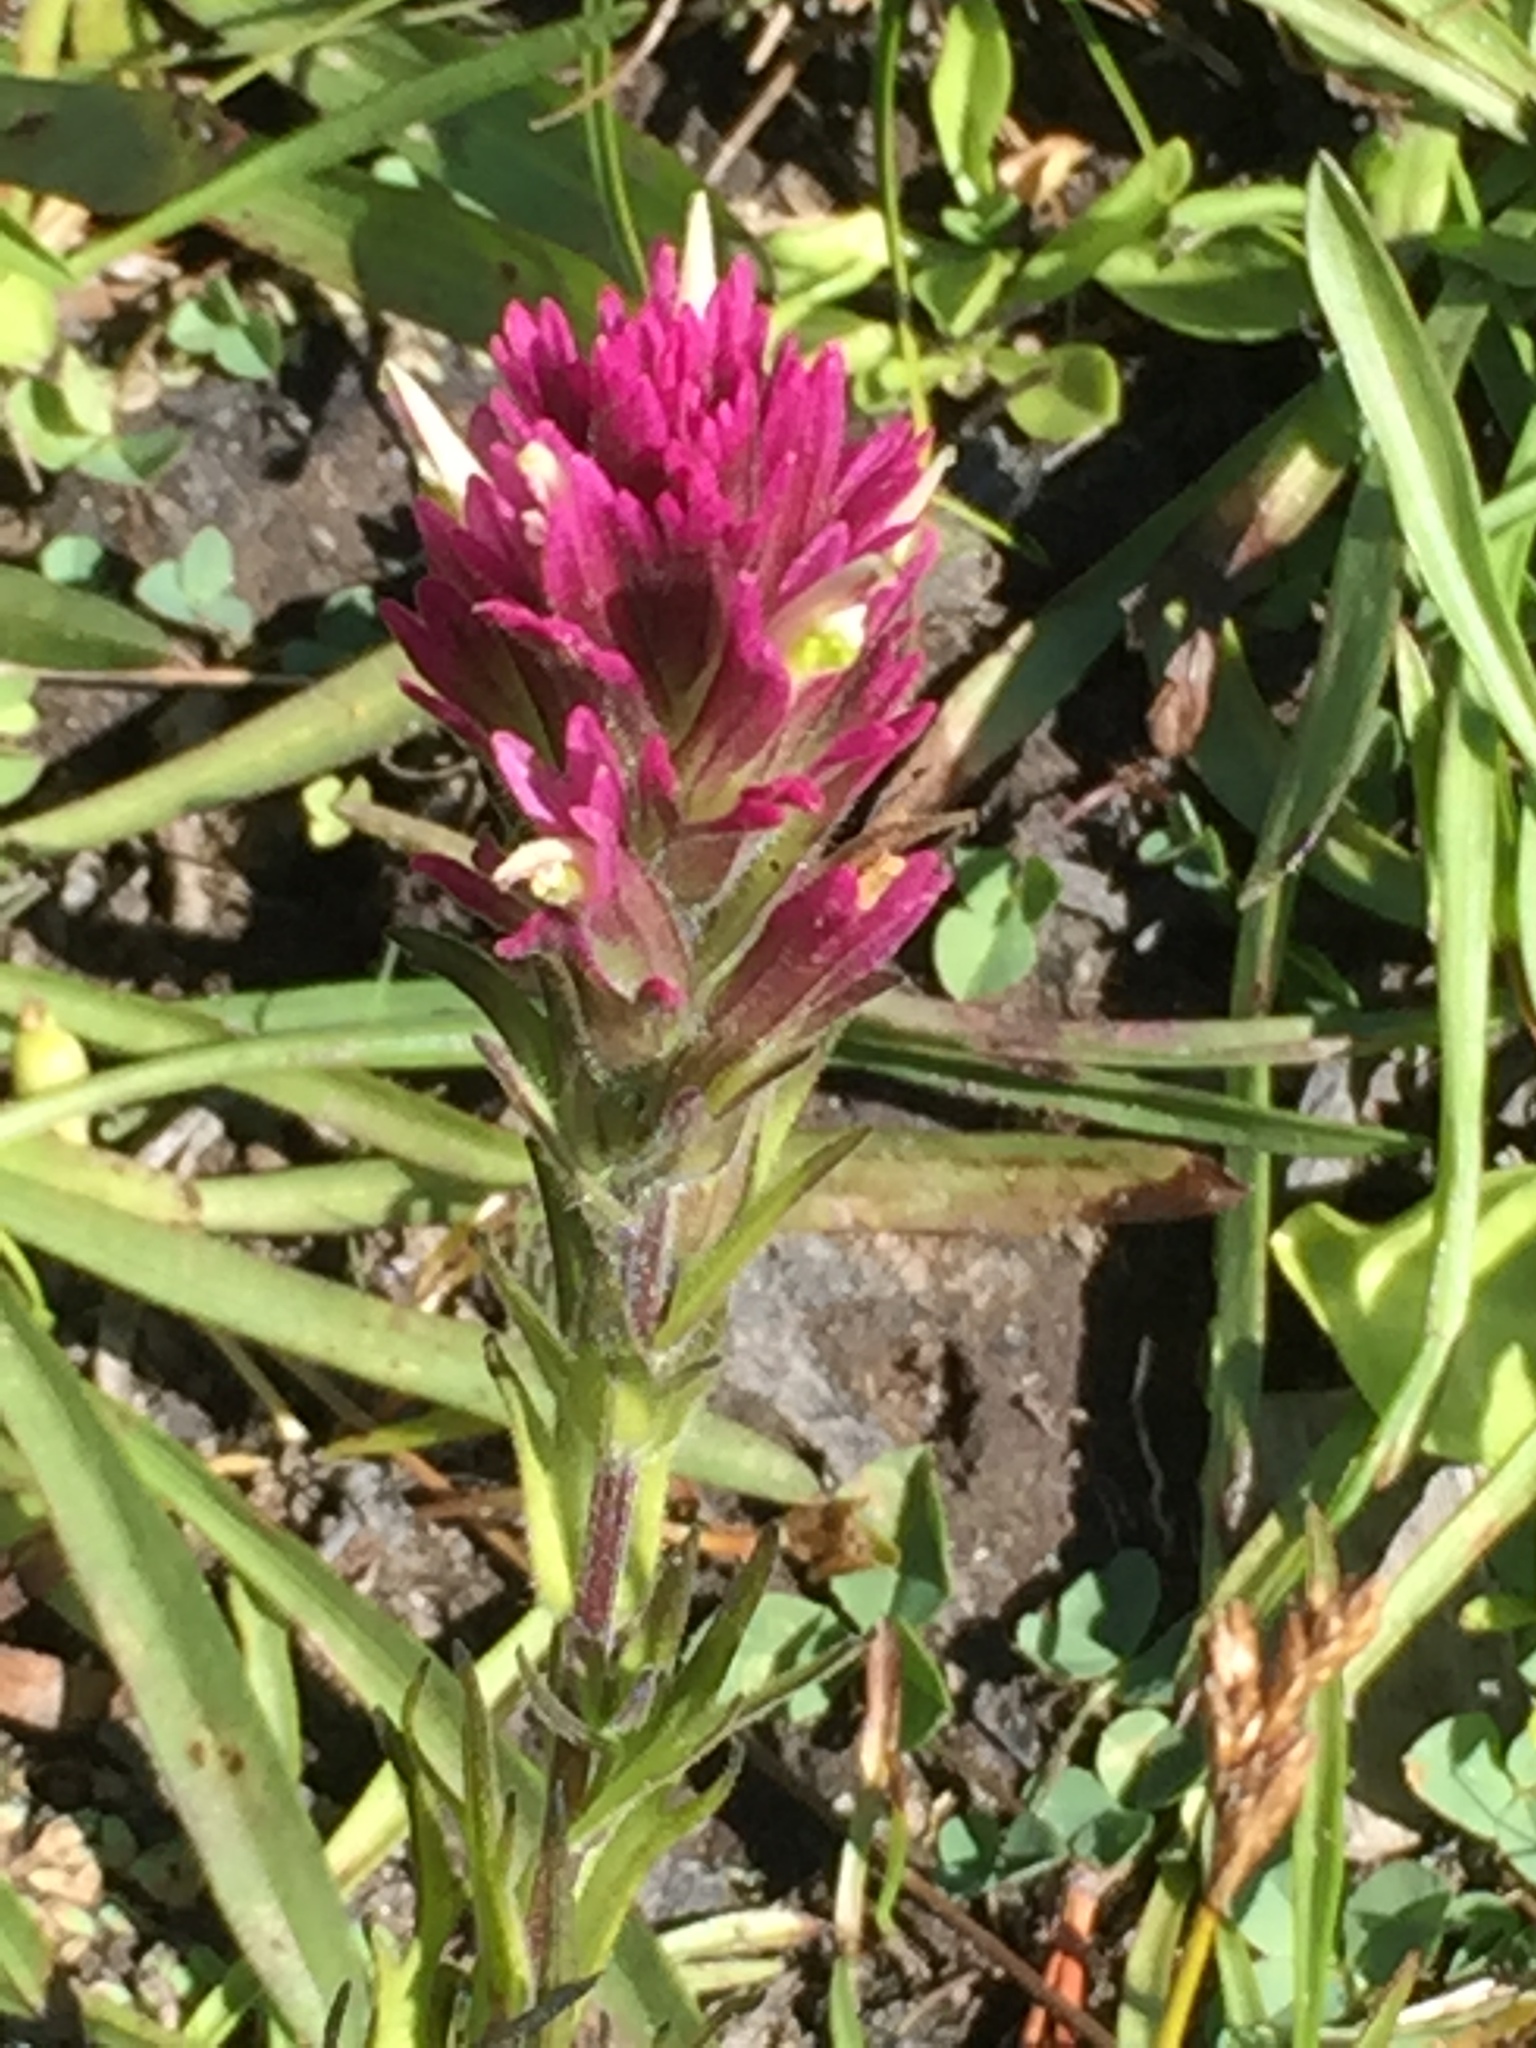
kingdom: Plantae
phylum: Tracheophyta
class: Magnoliopsida
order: Lamiales
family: Orobanchaceae
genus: Castilleja
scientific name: Castilleja lassenensis
